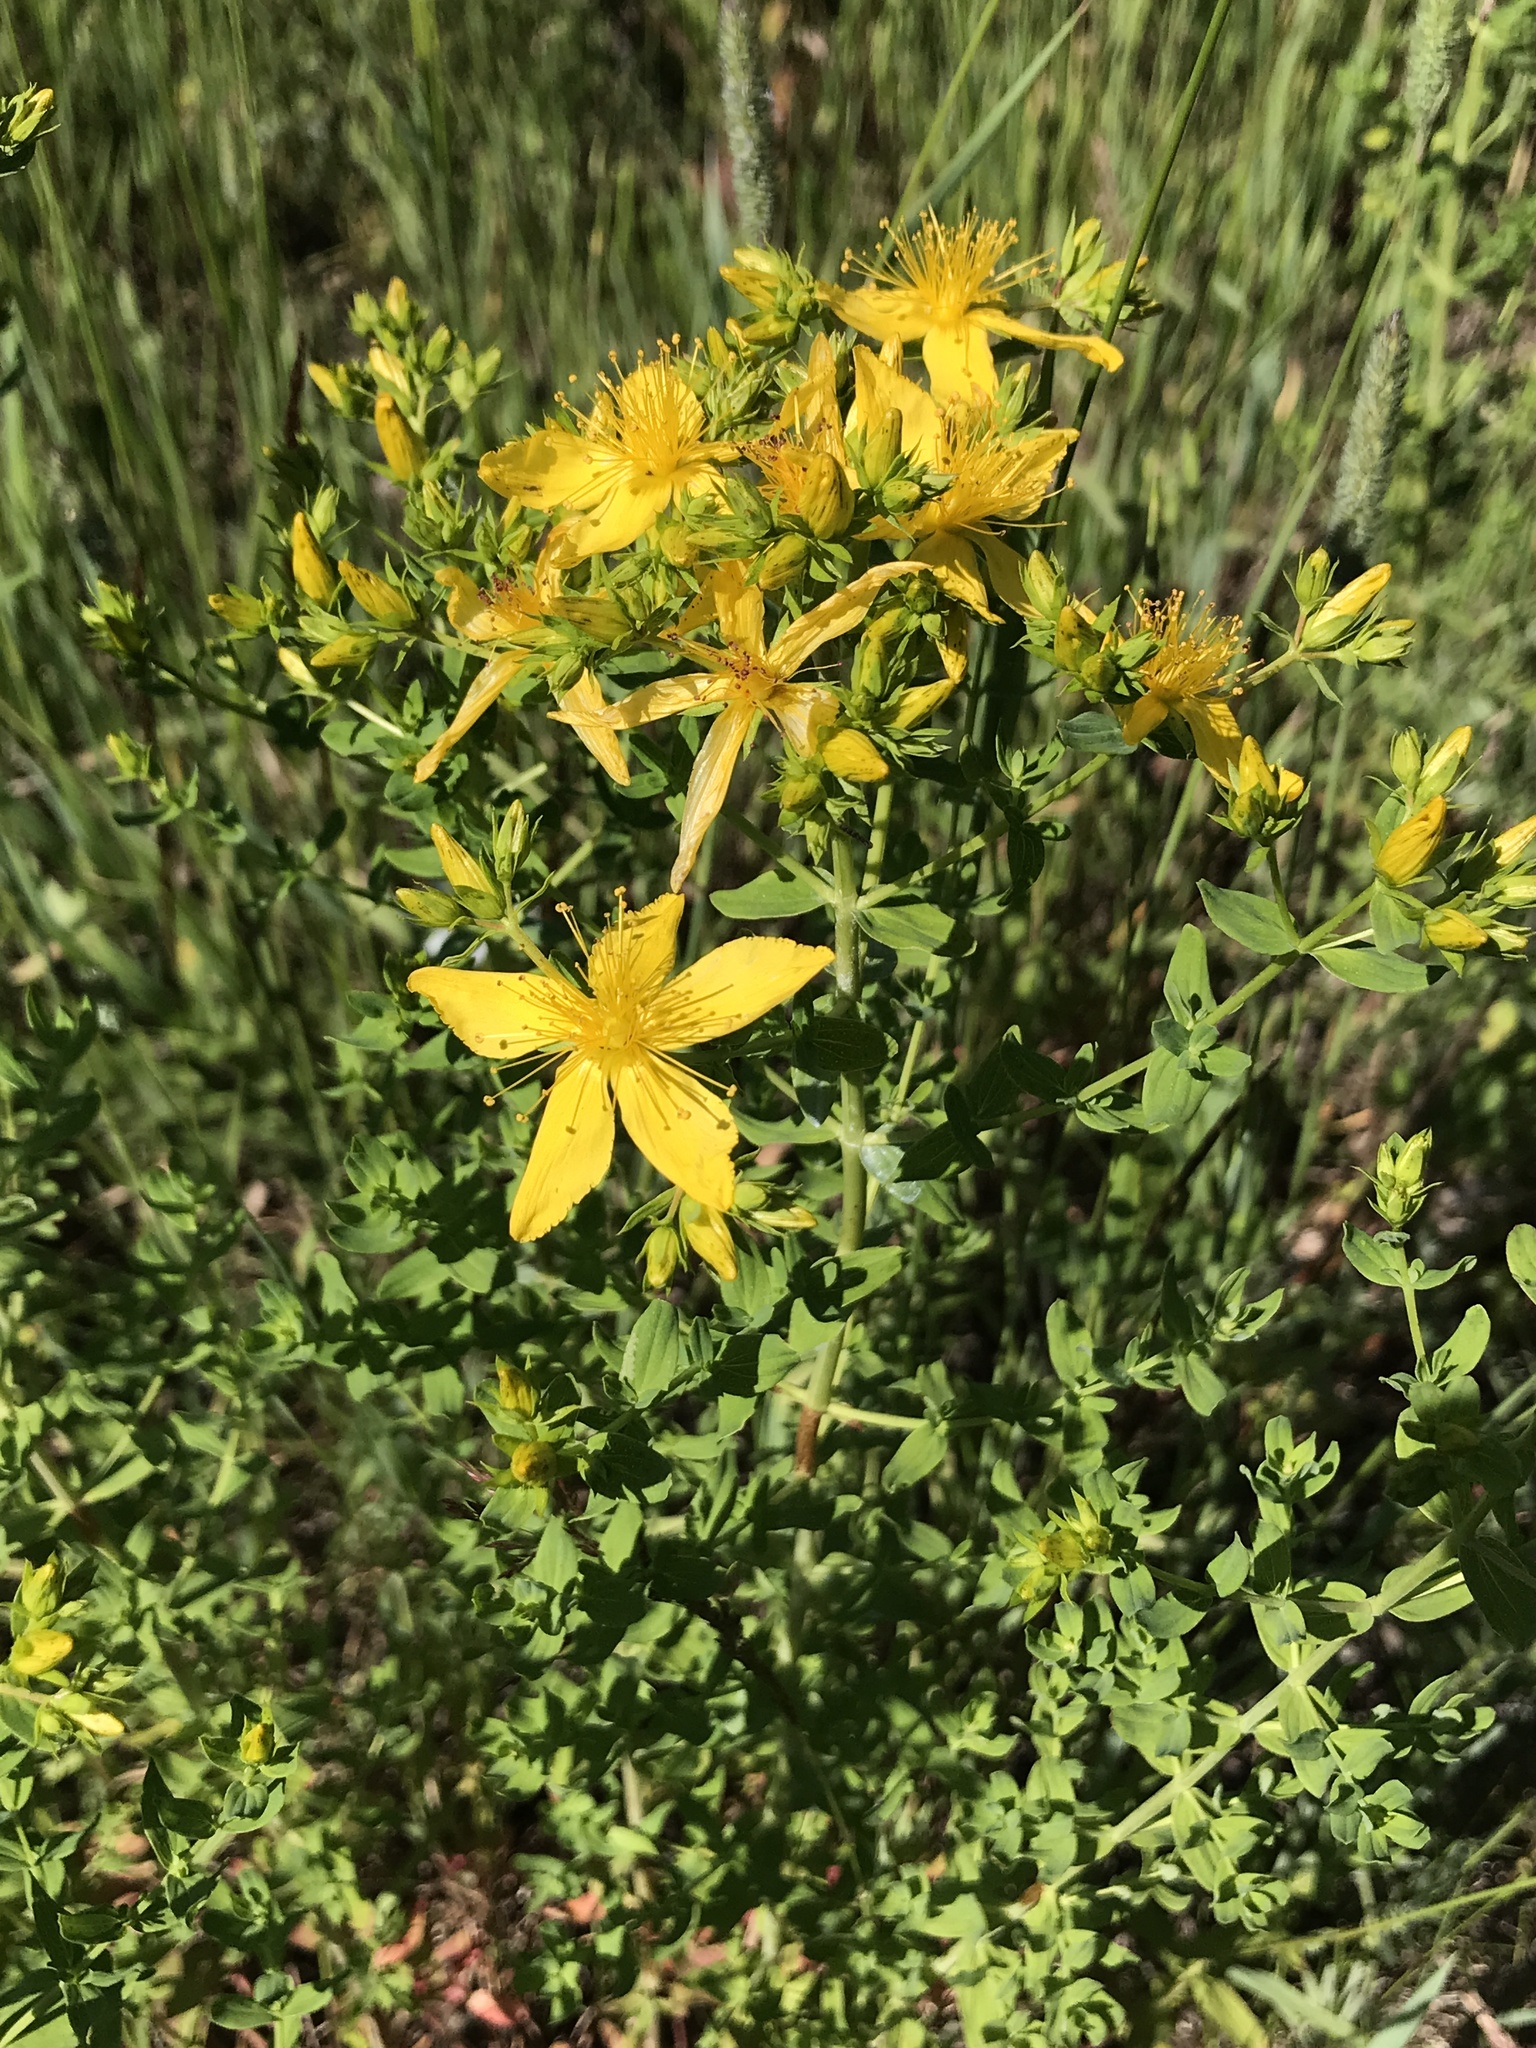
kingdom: Plantae
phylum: Tracheophyta
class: Magnoliopsida
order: Malpighiales
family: Hypericaceae
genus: Hypericum
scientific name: Hypericum perforatum
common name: Common st. johnswort
